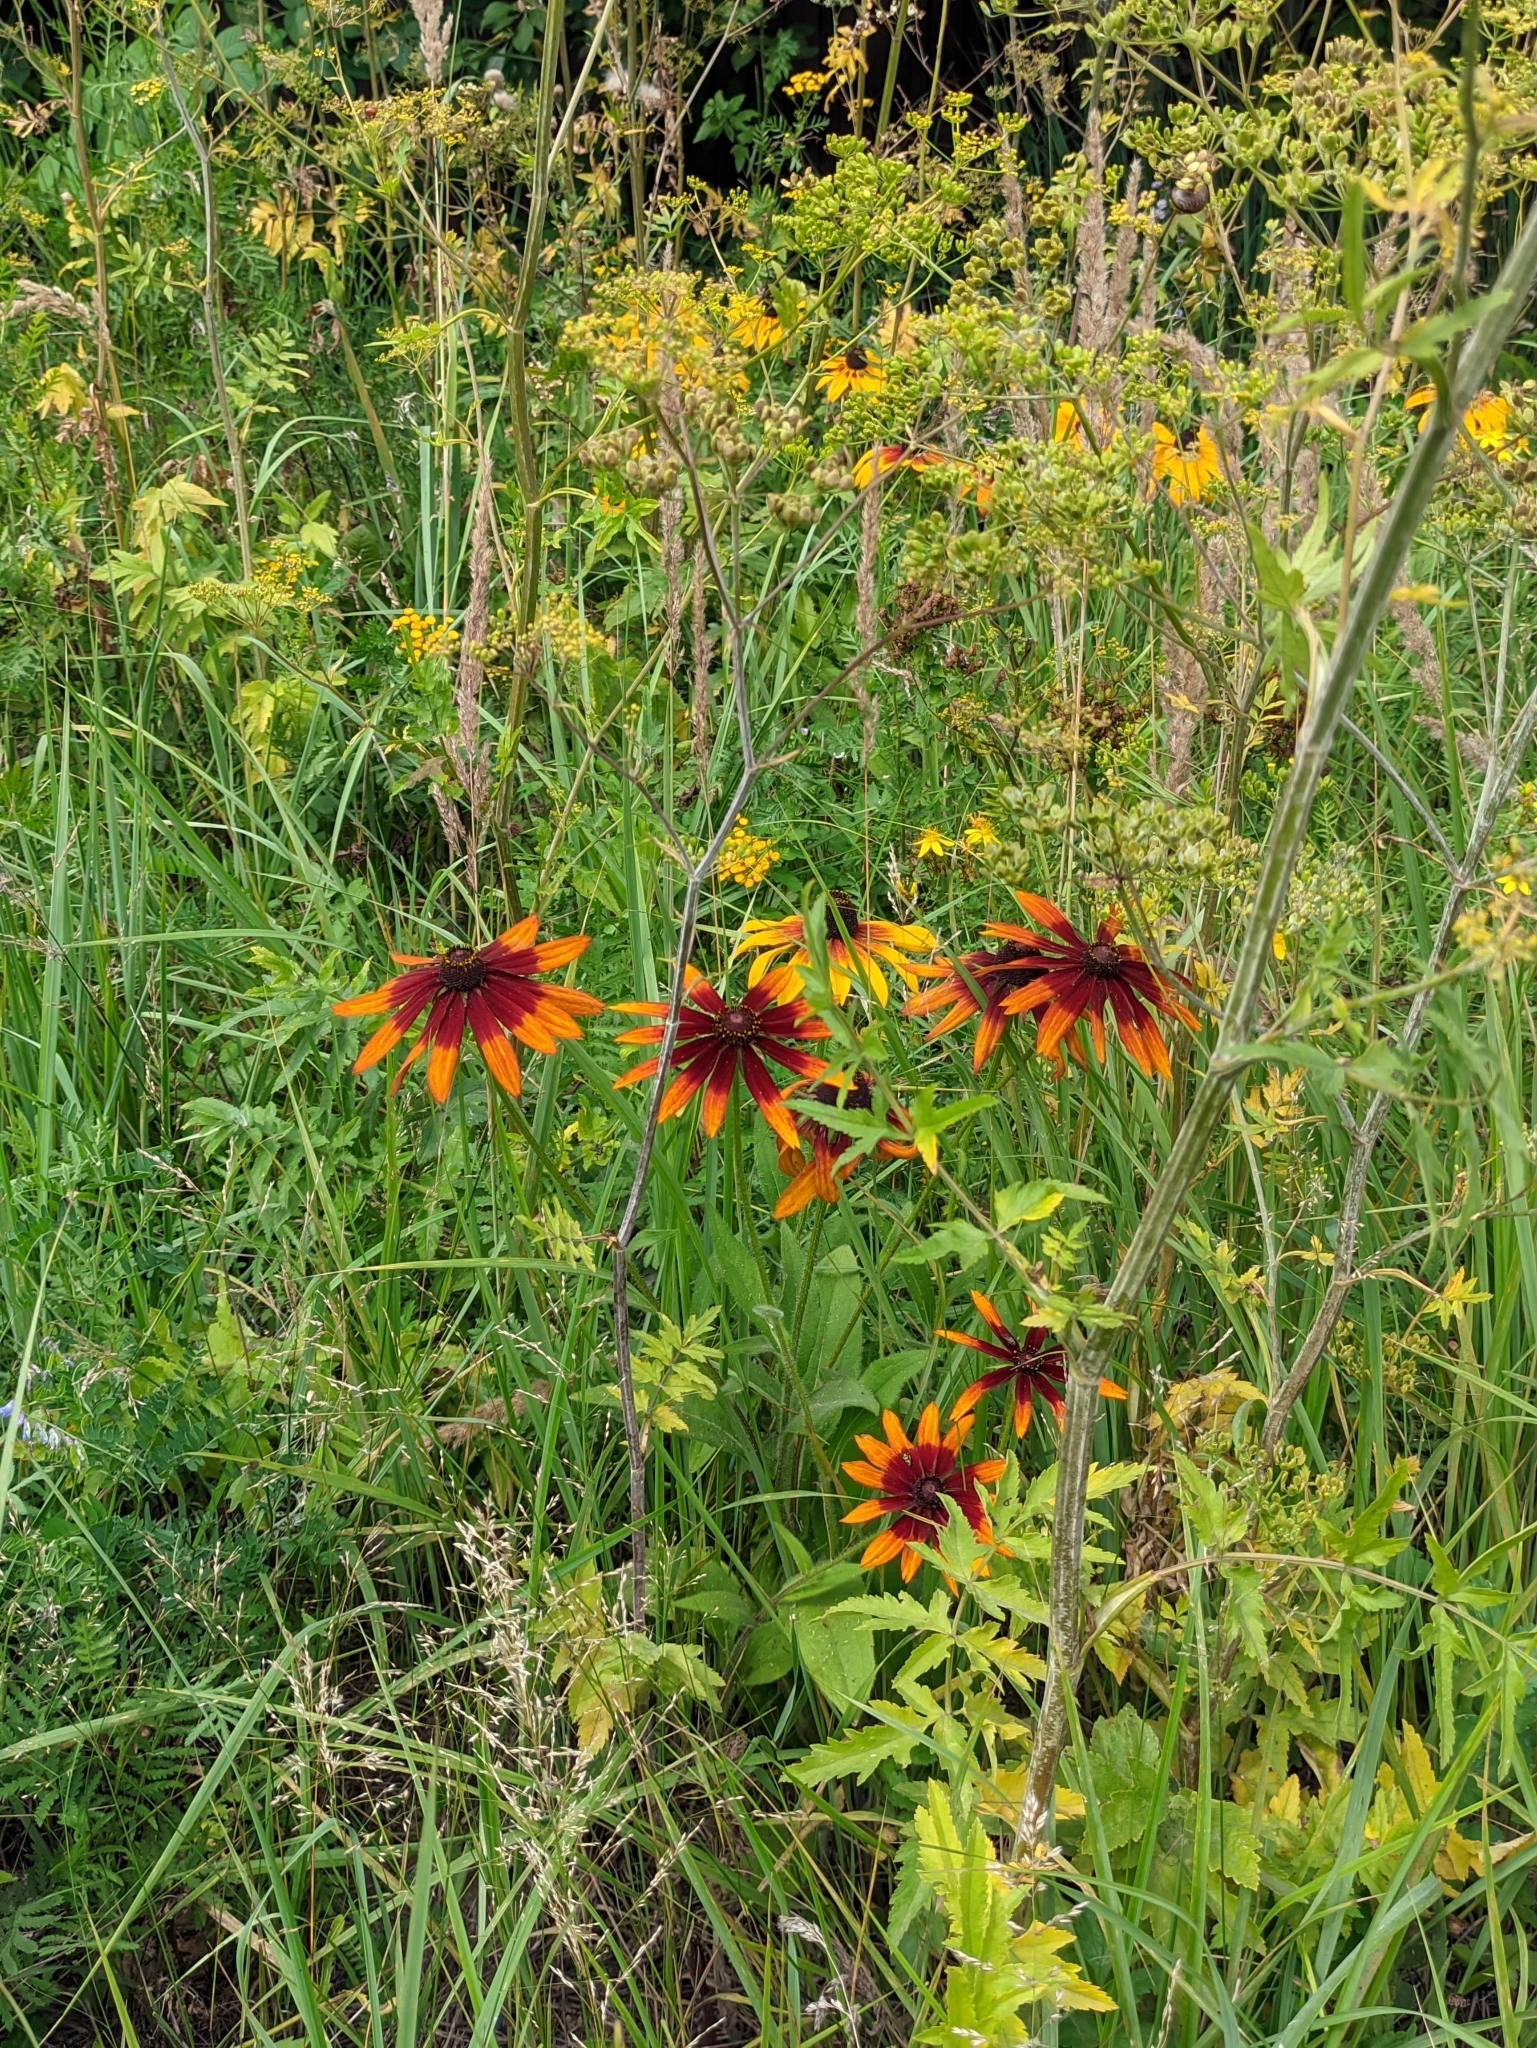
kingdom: Plantae
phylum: Tracheophyta
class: Magnoliopsida
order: Asterales
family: Asteraceae
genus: Rudbeckia
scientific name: Rudbeckia hirta
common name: Black-eyed-susan
